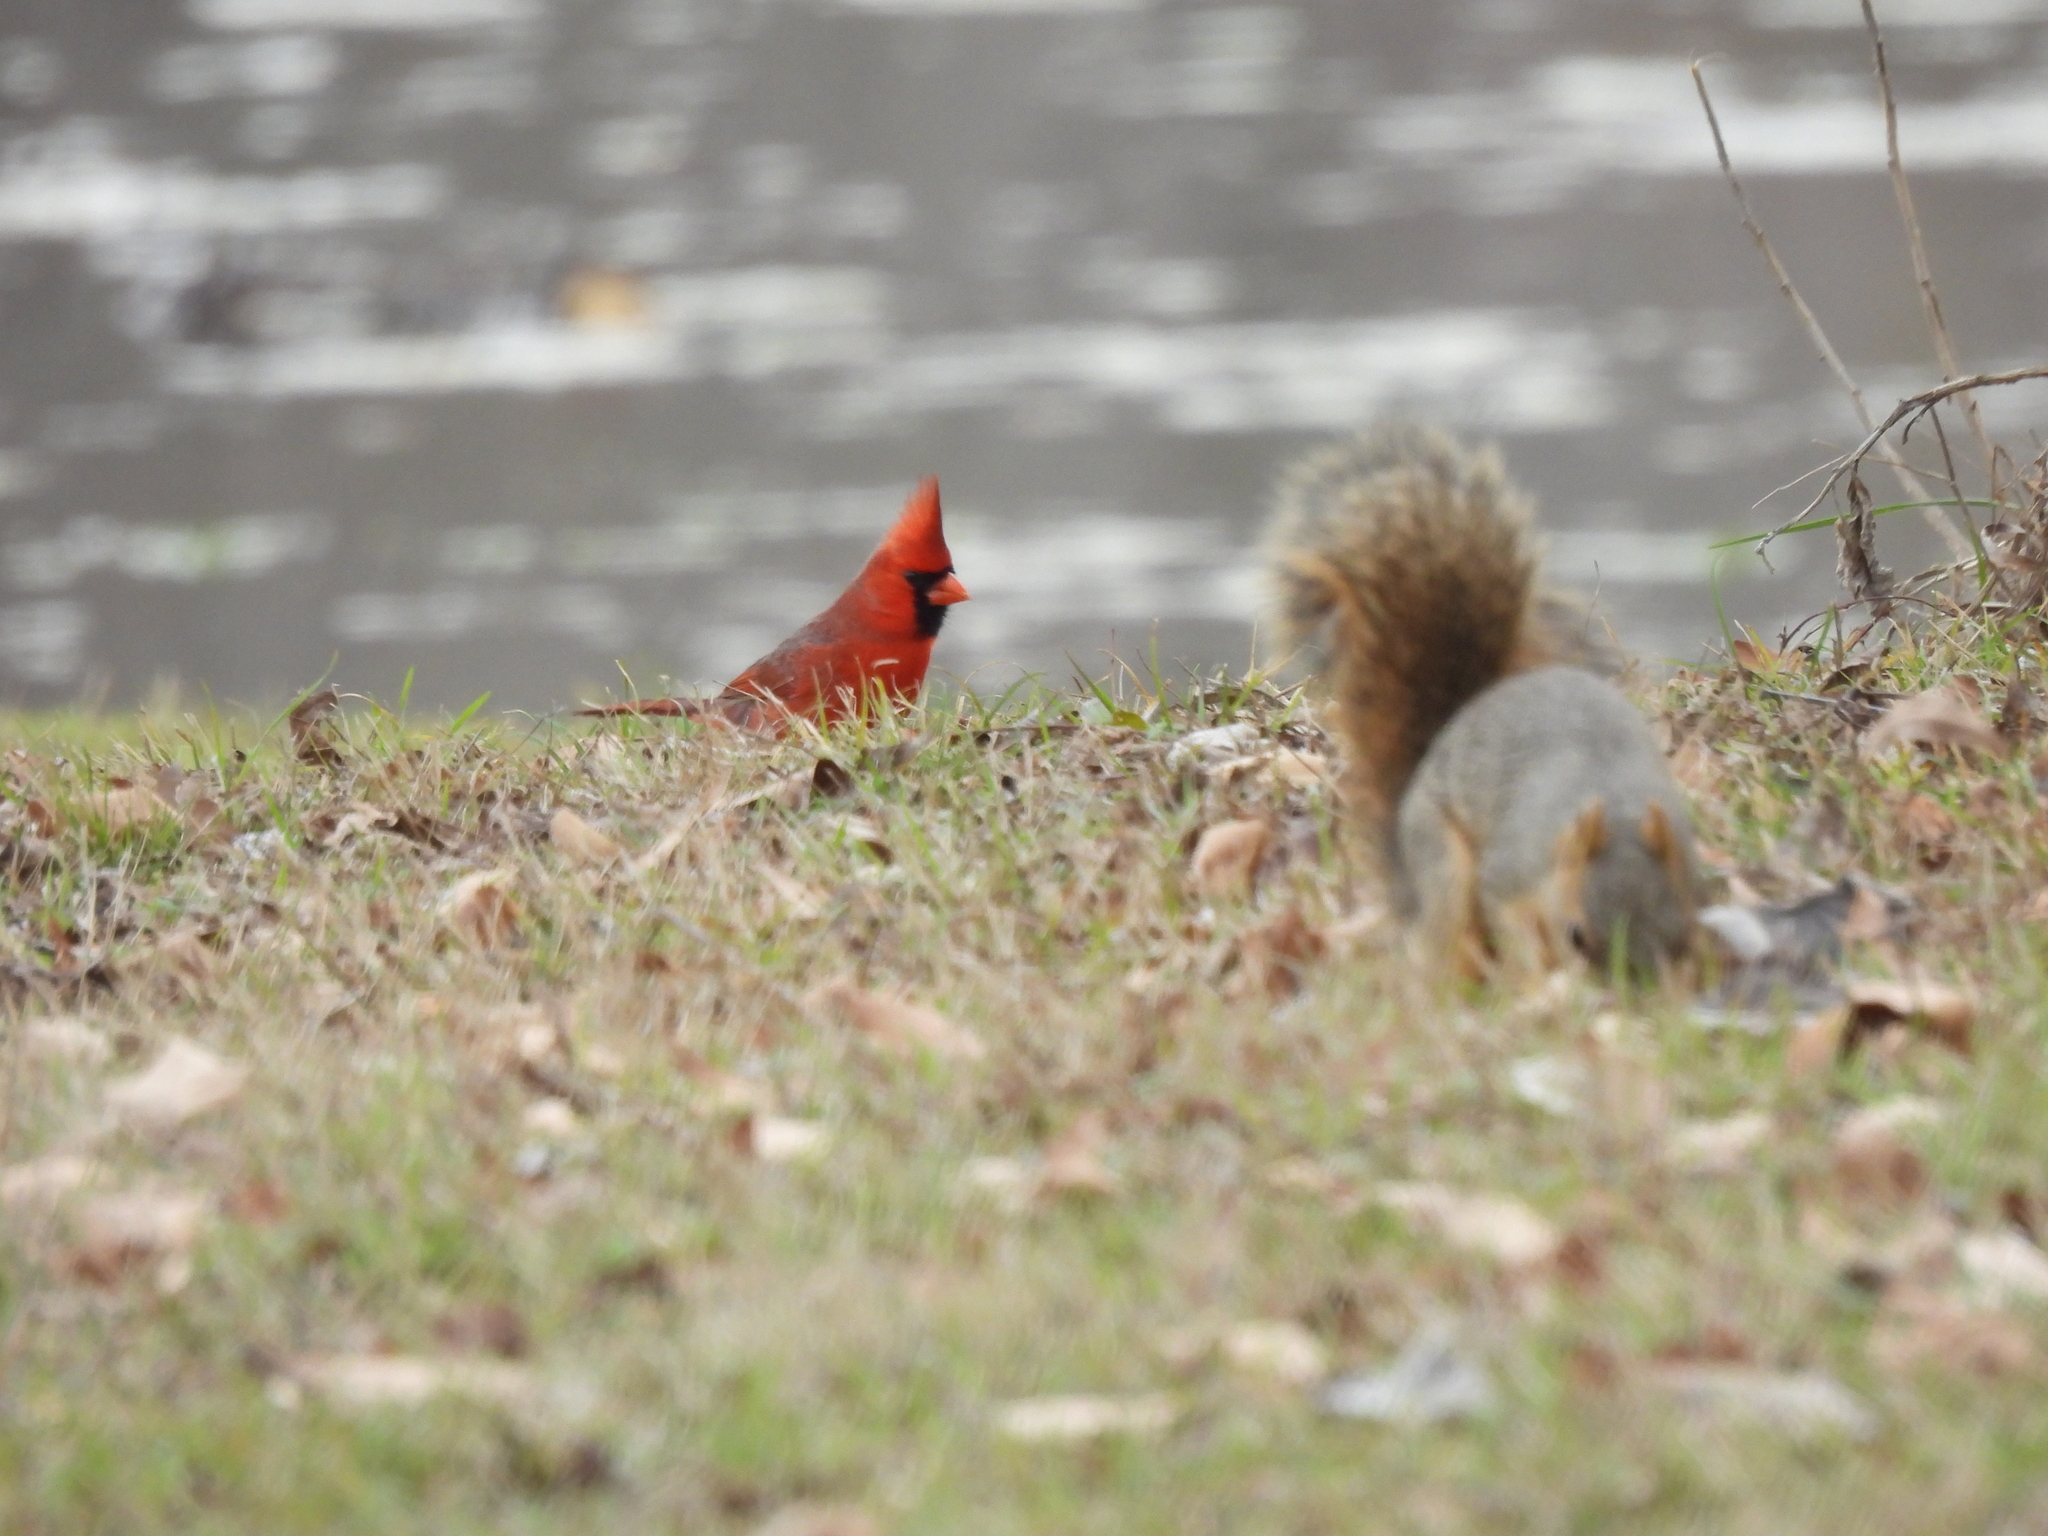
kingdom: Animalia
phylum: Chordata
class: Mammalia
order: Rodentia
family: Sciuridae
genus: Sciurus
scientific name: Sciurus niger
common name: Fox squirrel
